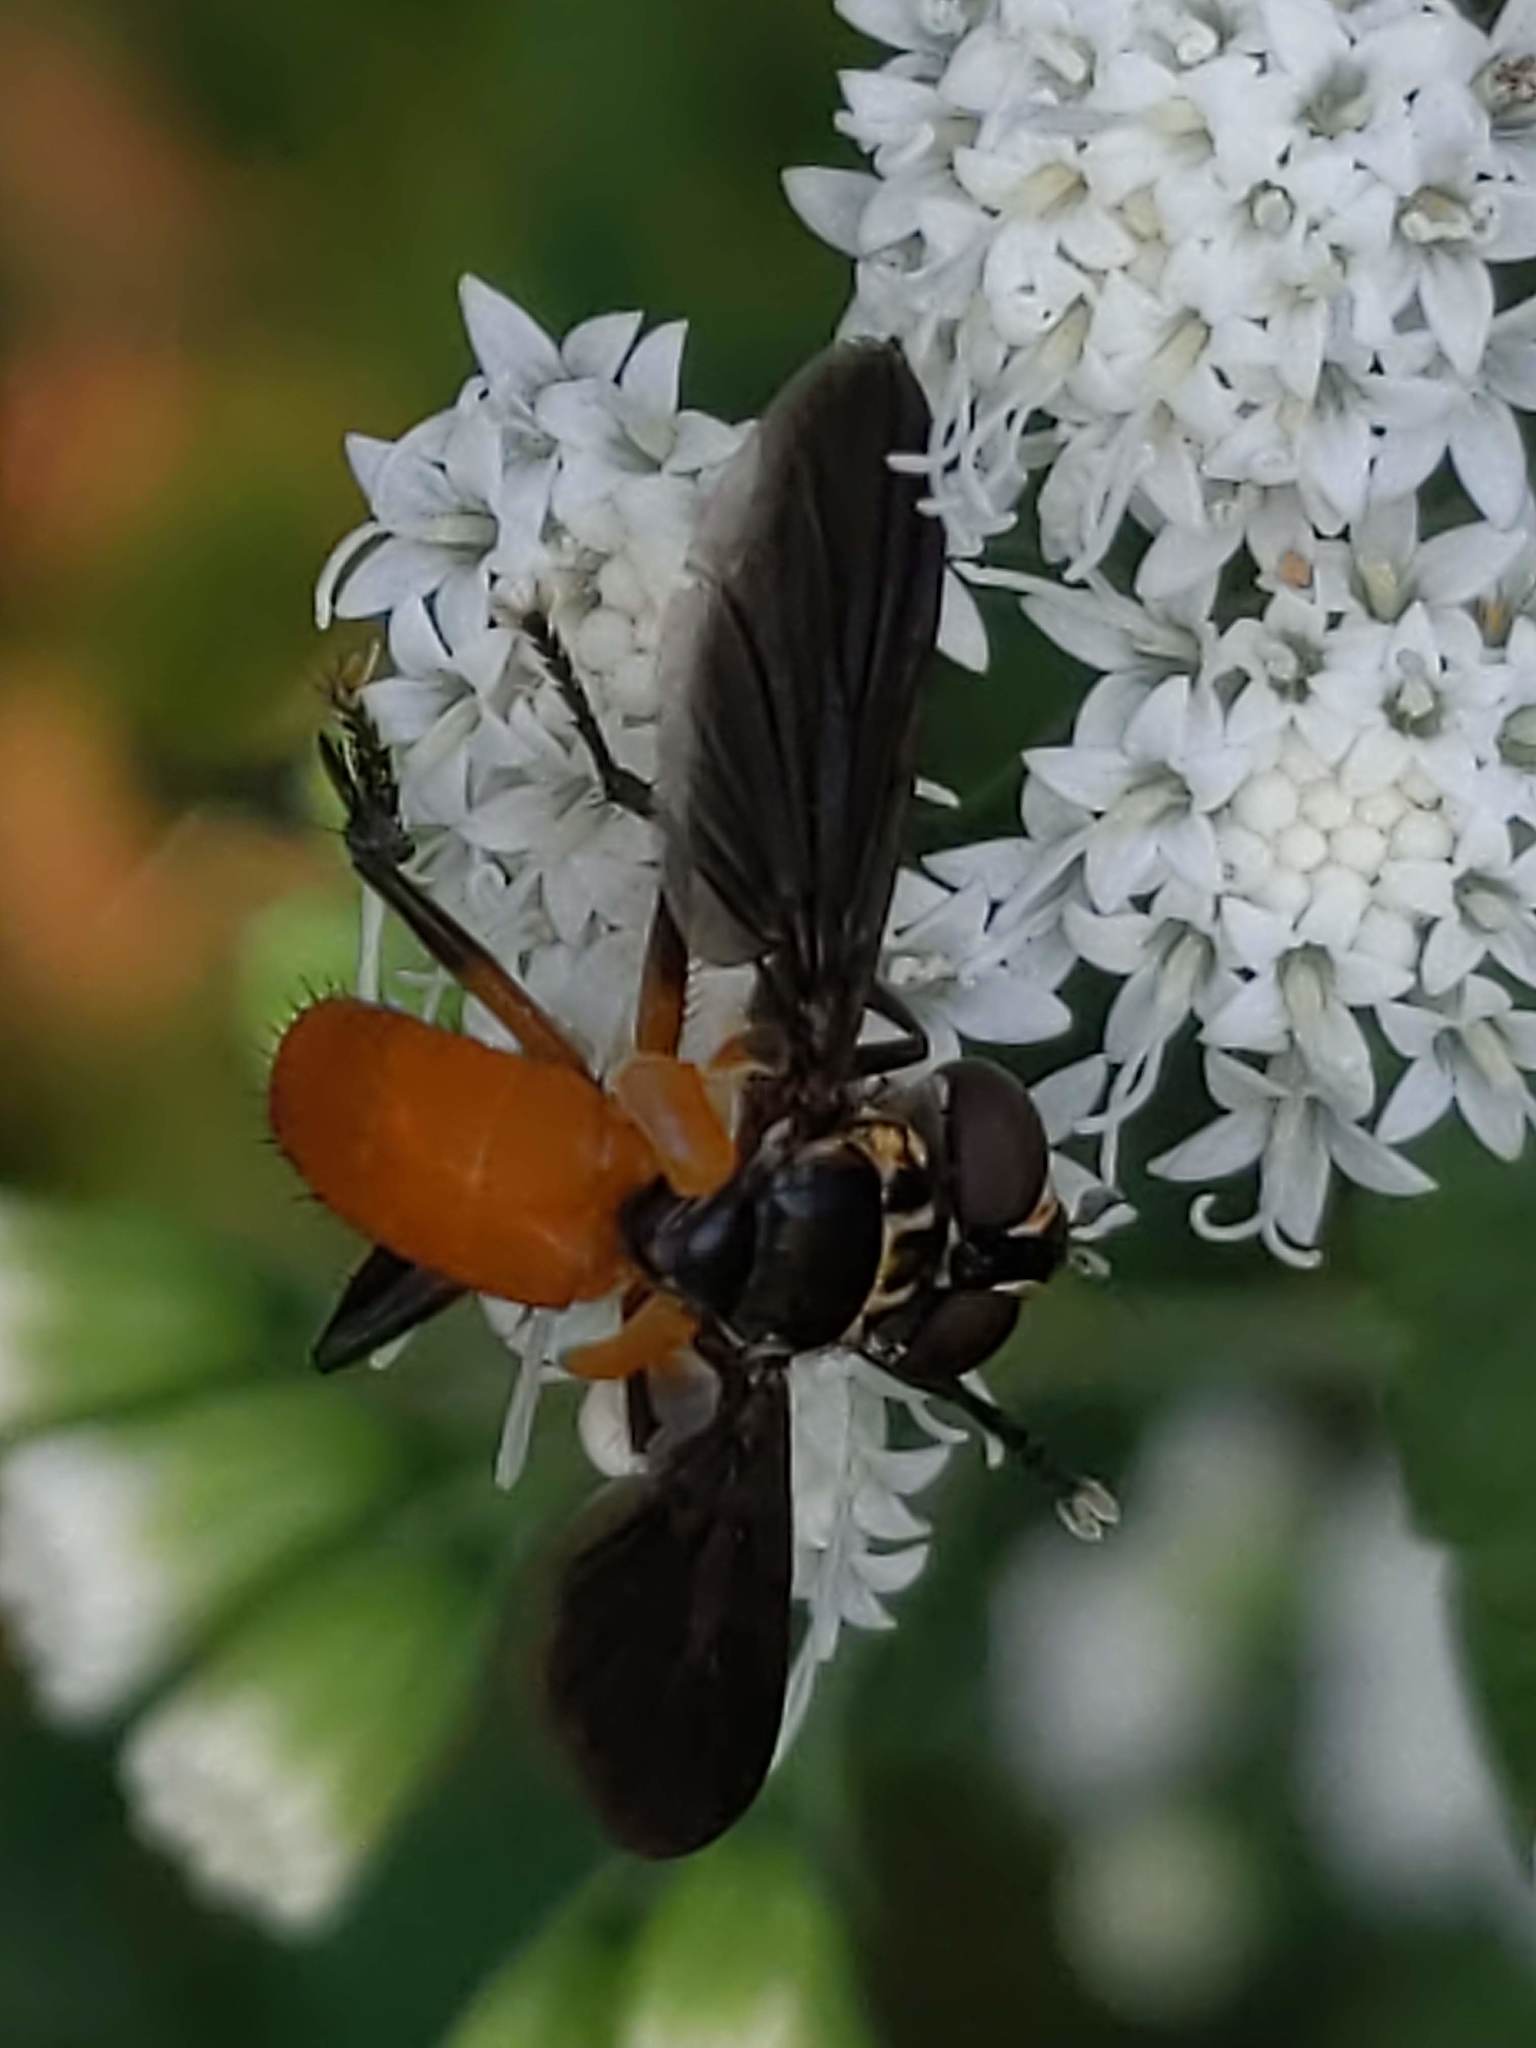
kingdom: Animalia
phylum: Arthropoda
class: Insecta
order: Diptera
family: Tachinidae
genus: Trichopoda
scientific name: Trichopoda pennipes
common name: Tachinid fly
